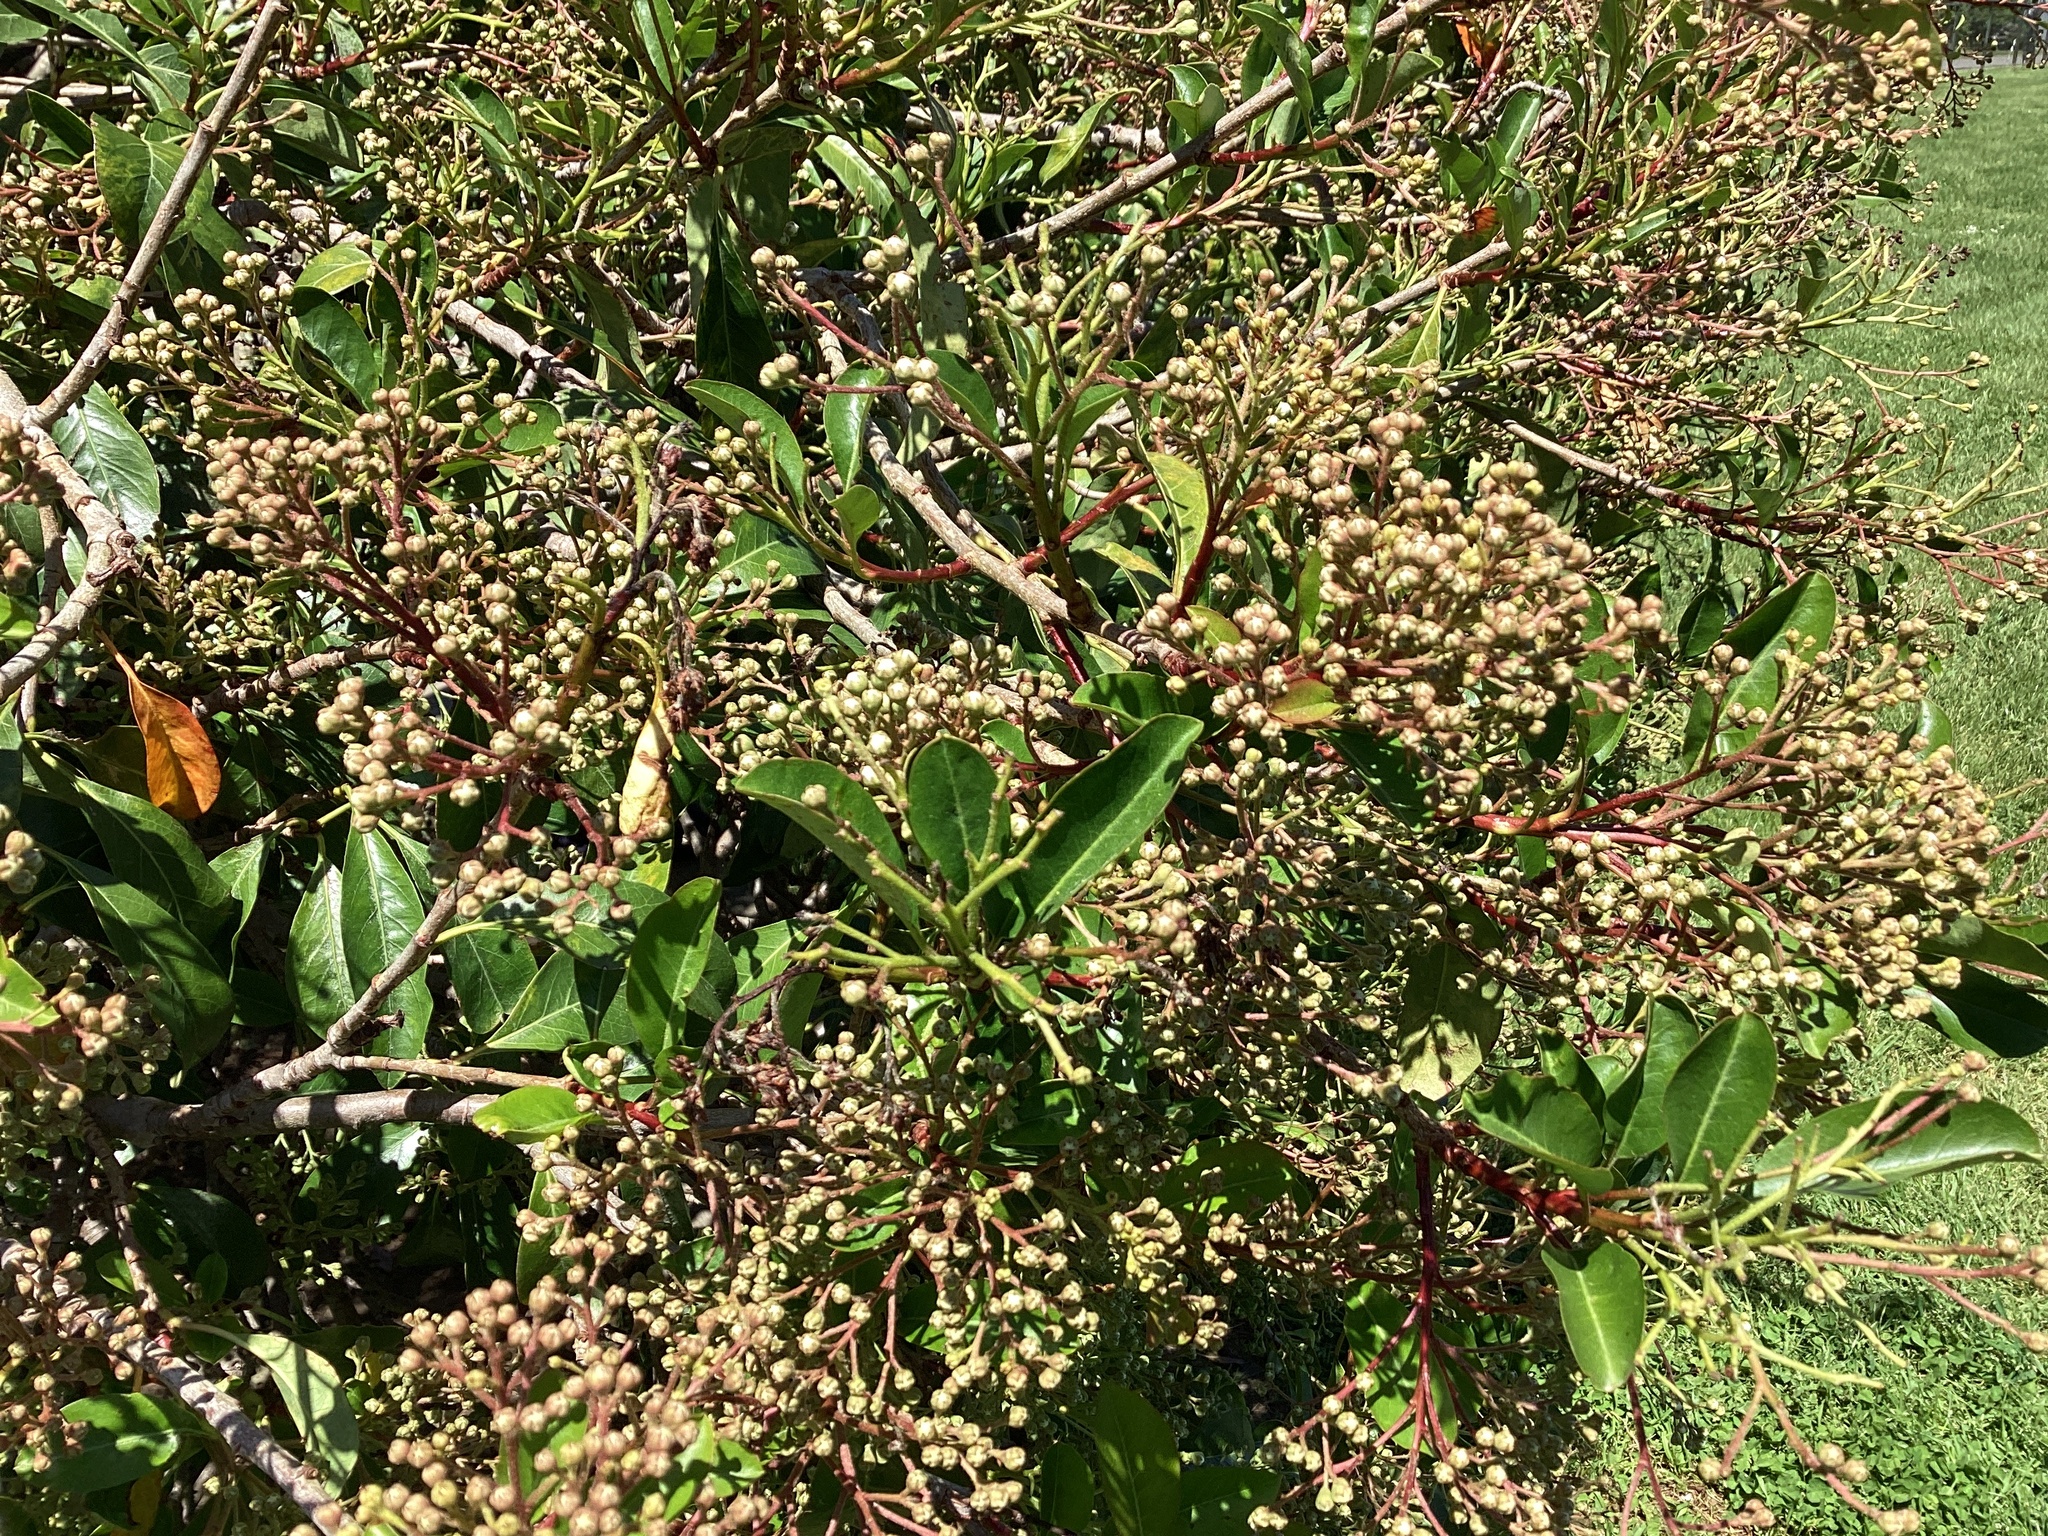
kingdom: Plantae
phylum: Tracheophyta
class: Magnoliopsida
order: Apiales
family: Pennantiaceae
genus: Pennantia
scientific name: Pennantia corymbosa
